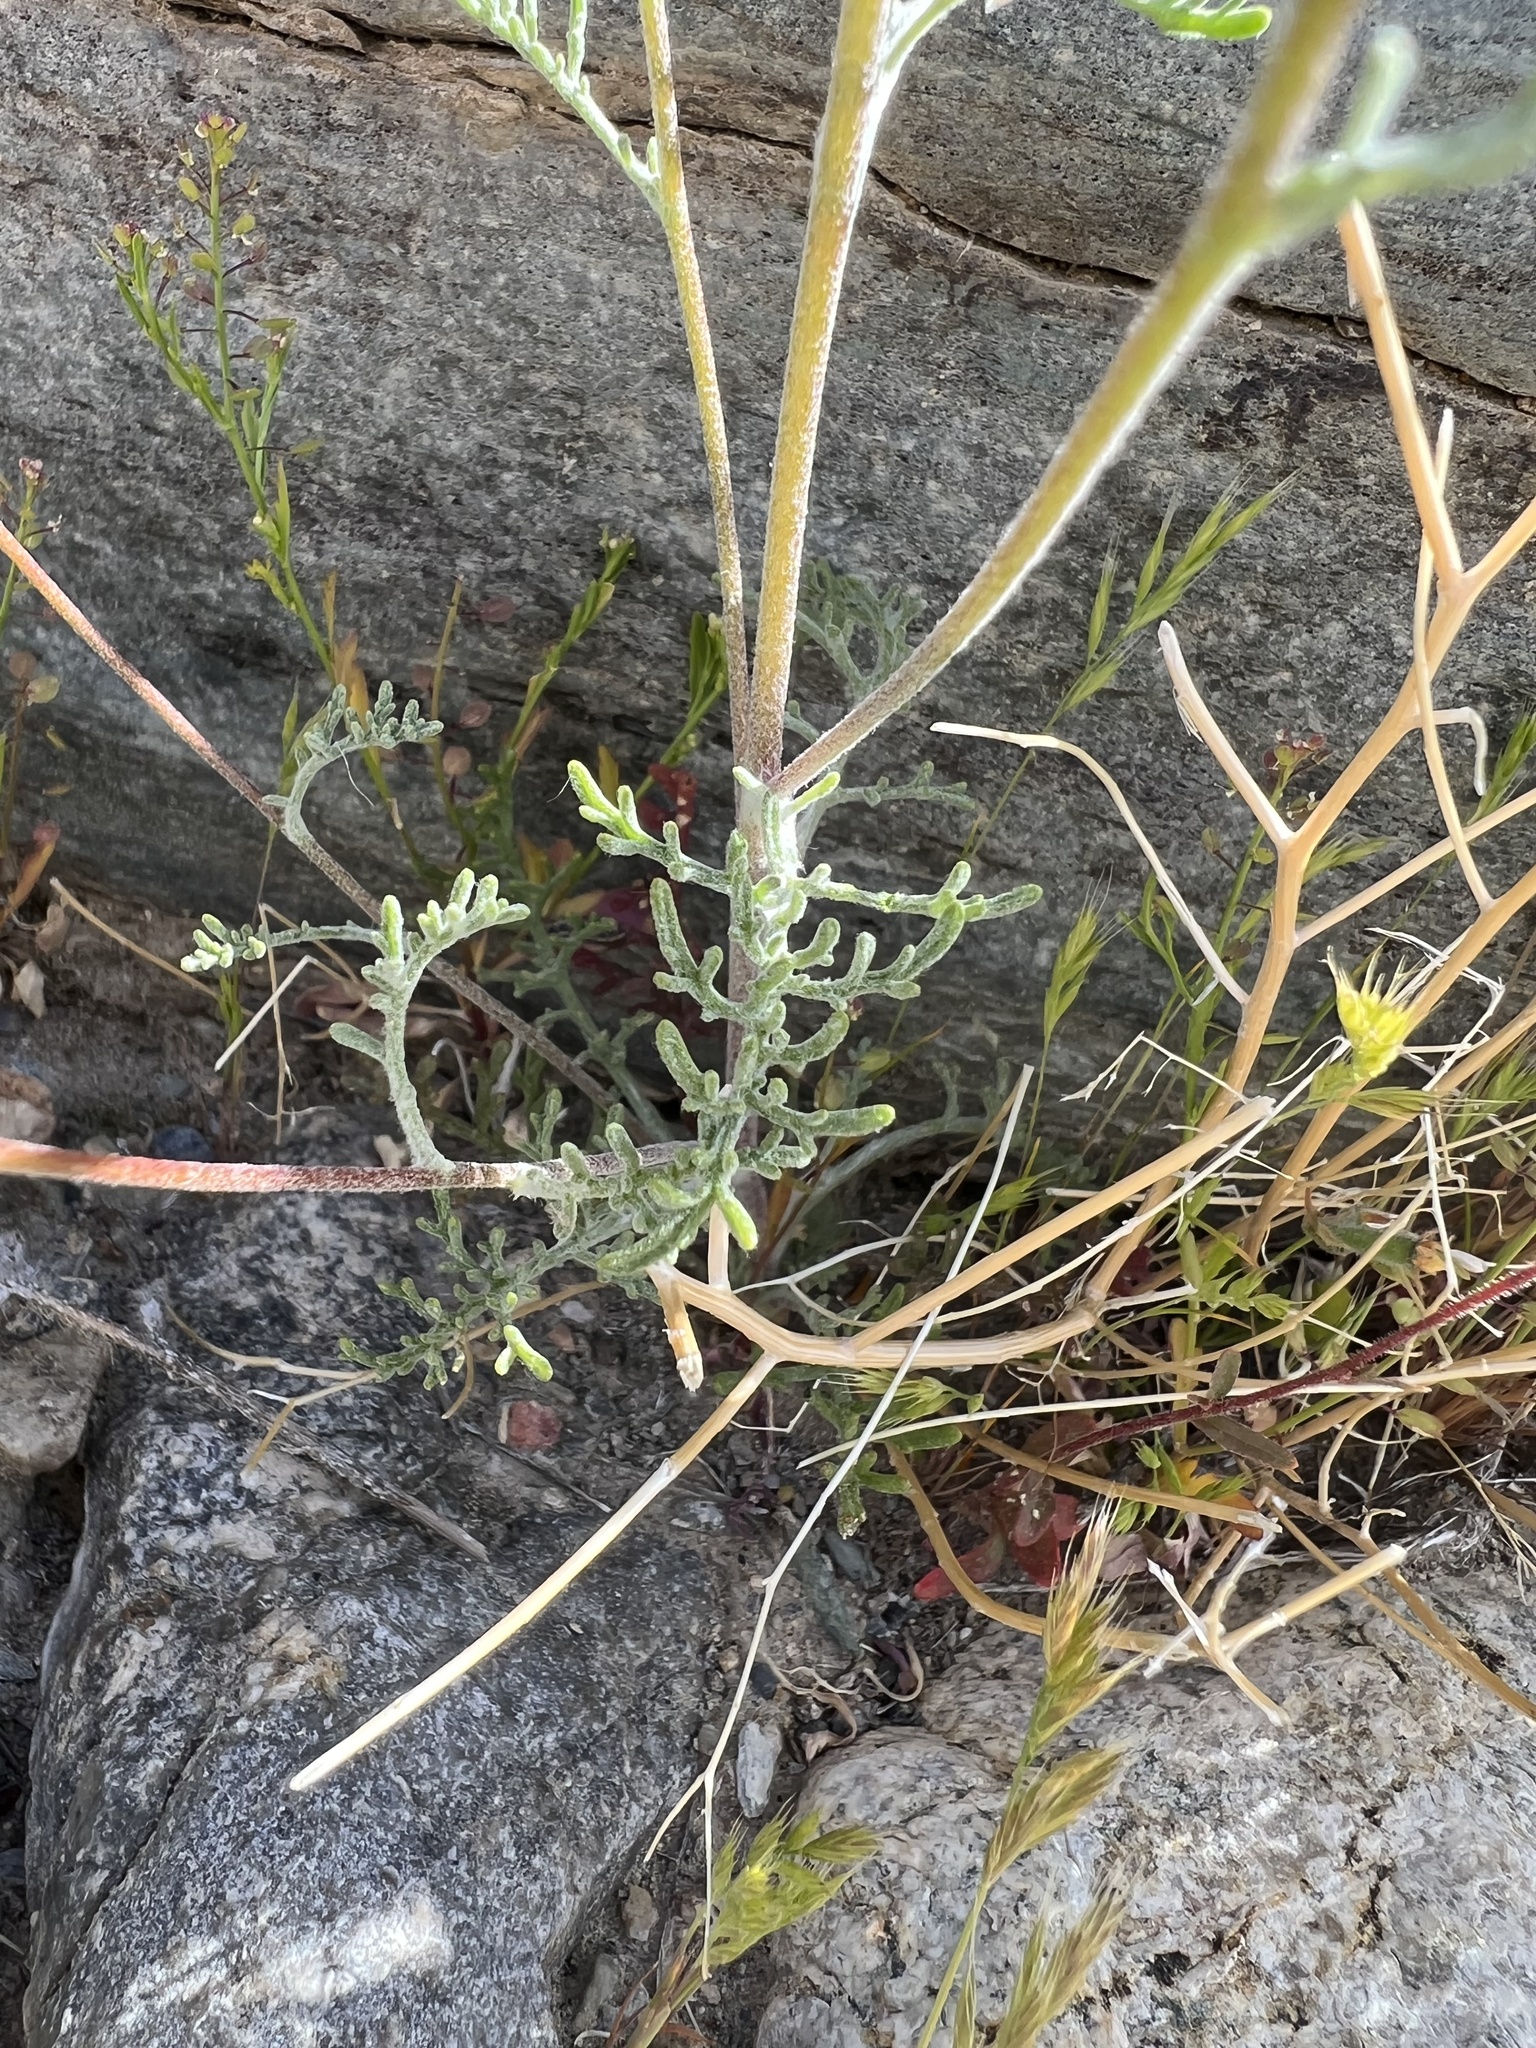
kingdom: Plantae
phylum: Tracheophyta
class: Magnoliopsida
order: Asterales
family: Asteraceae
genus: Chaenactis
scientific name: Chaenactis stevioides
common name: Desert pincushion
